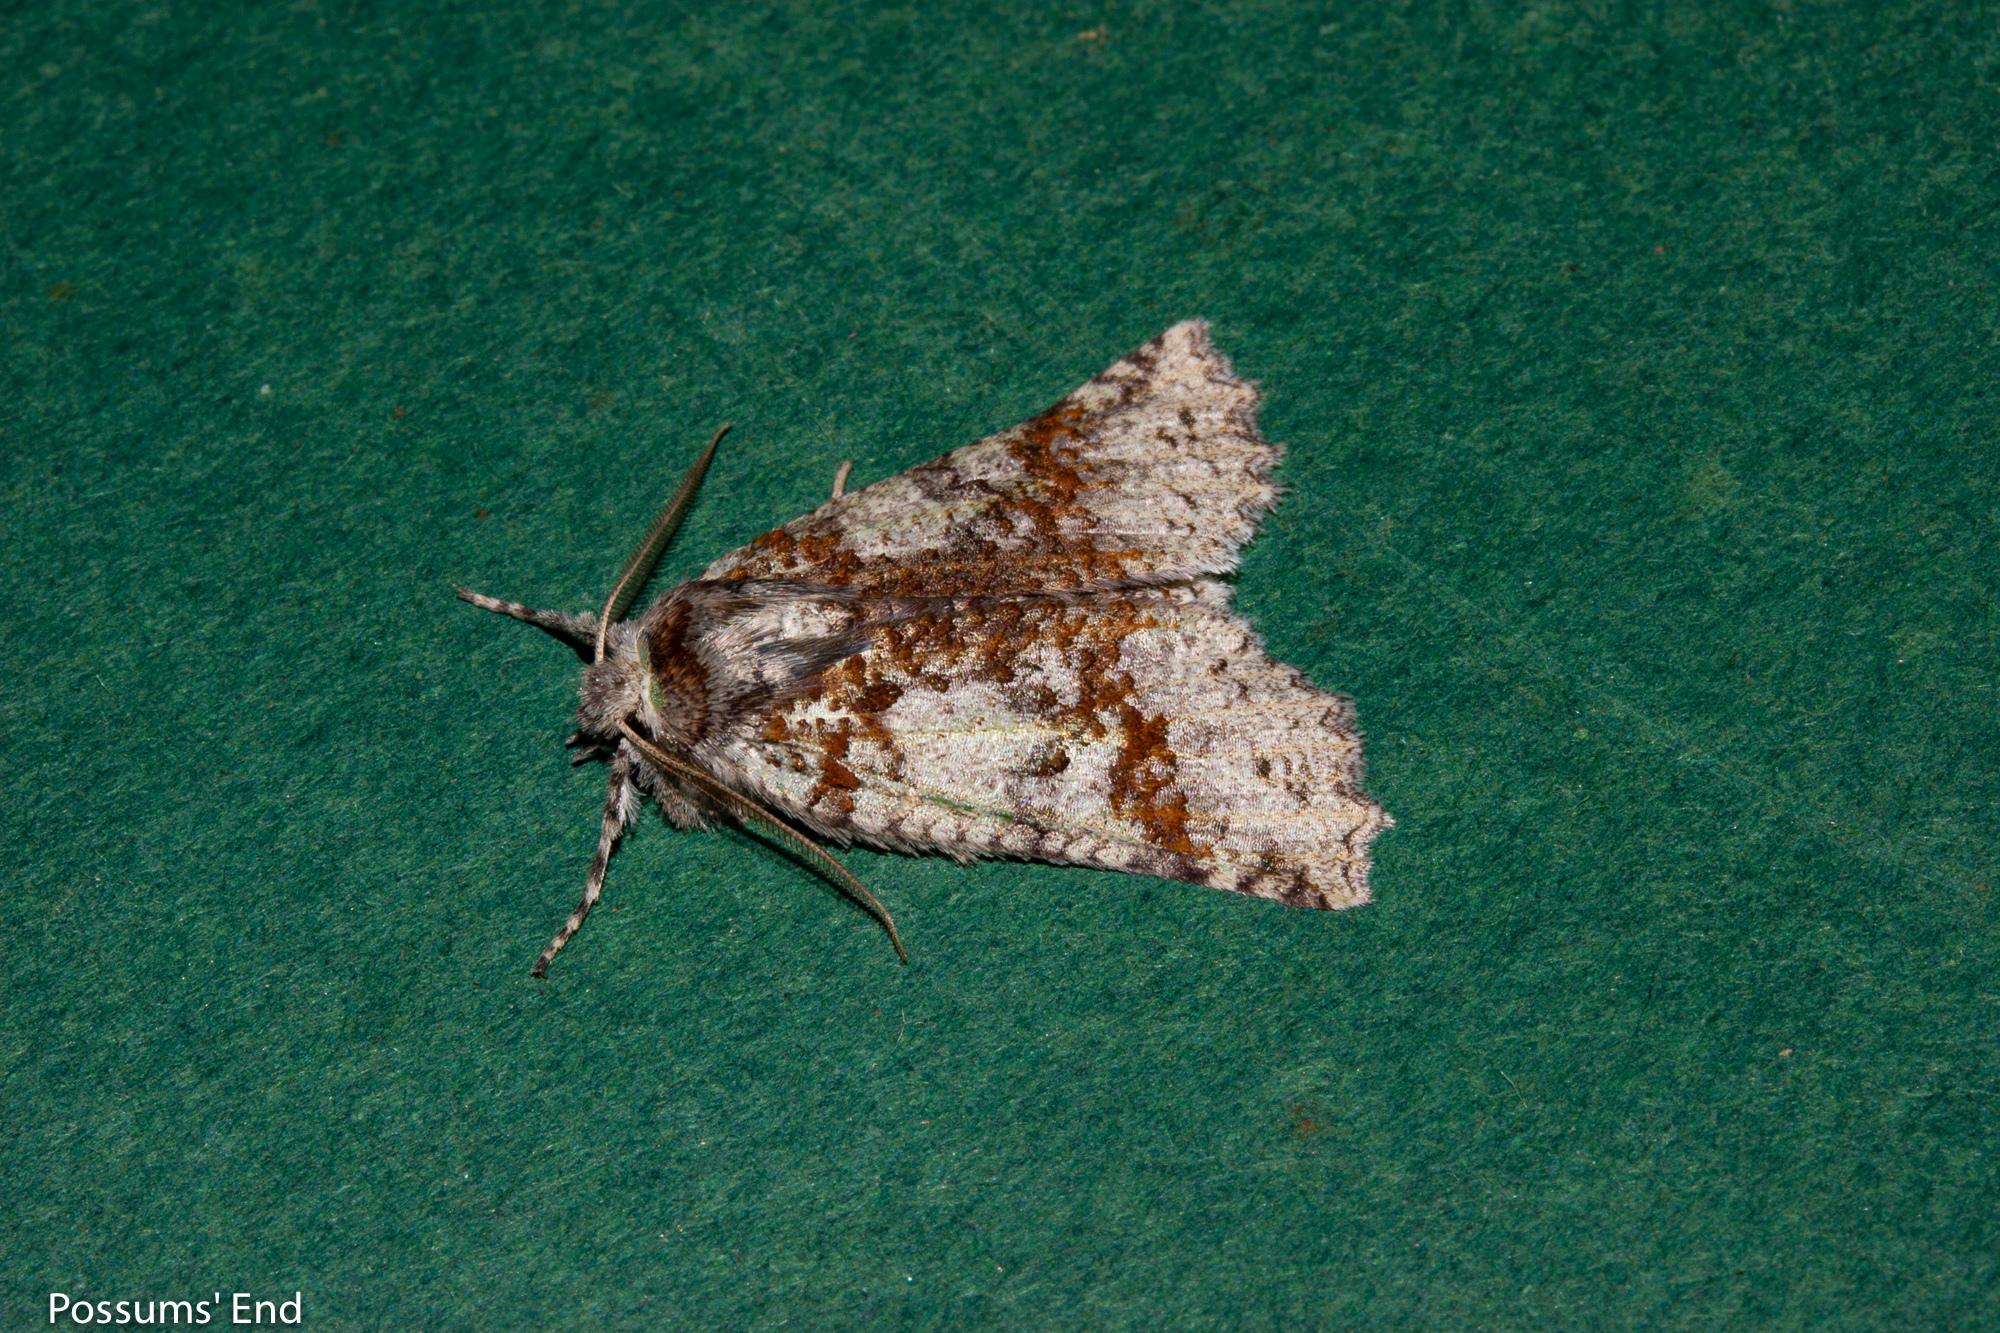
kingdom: Animalia
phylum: Arthropoda
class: Insecta
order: Lepidoptera
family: Geometridae
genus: Declana
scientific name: Declana floccosa
